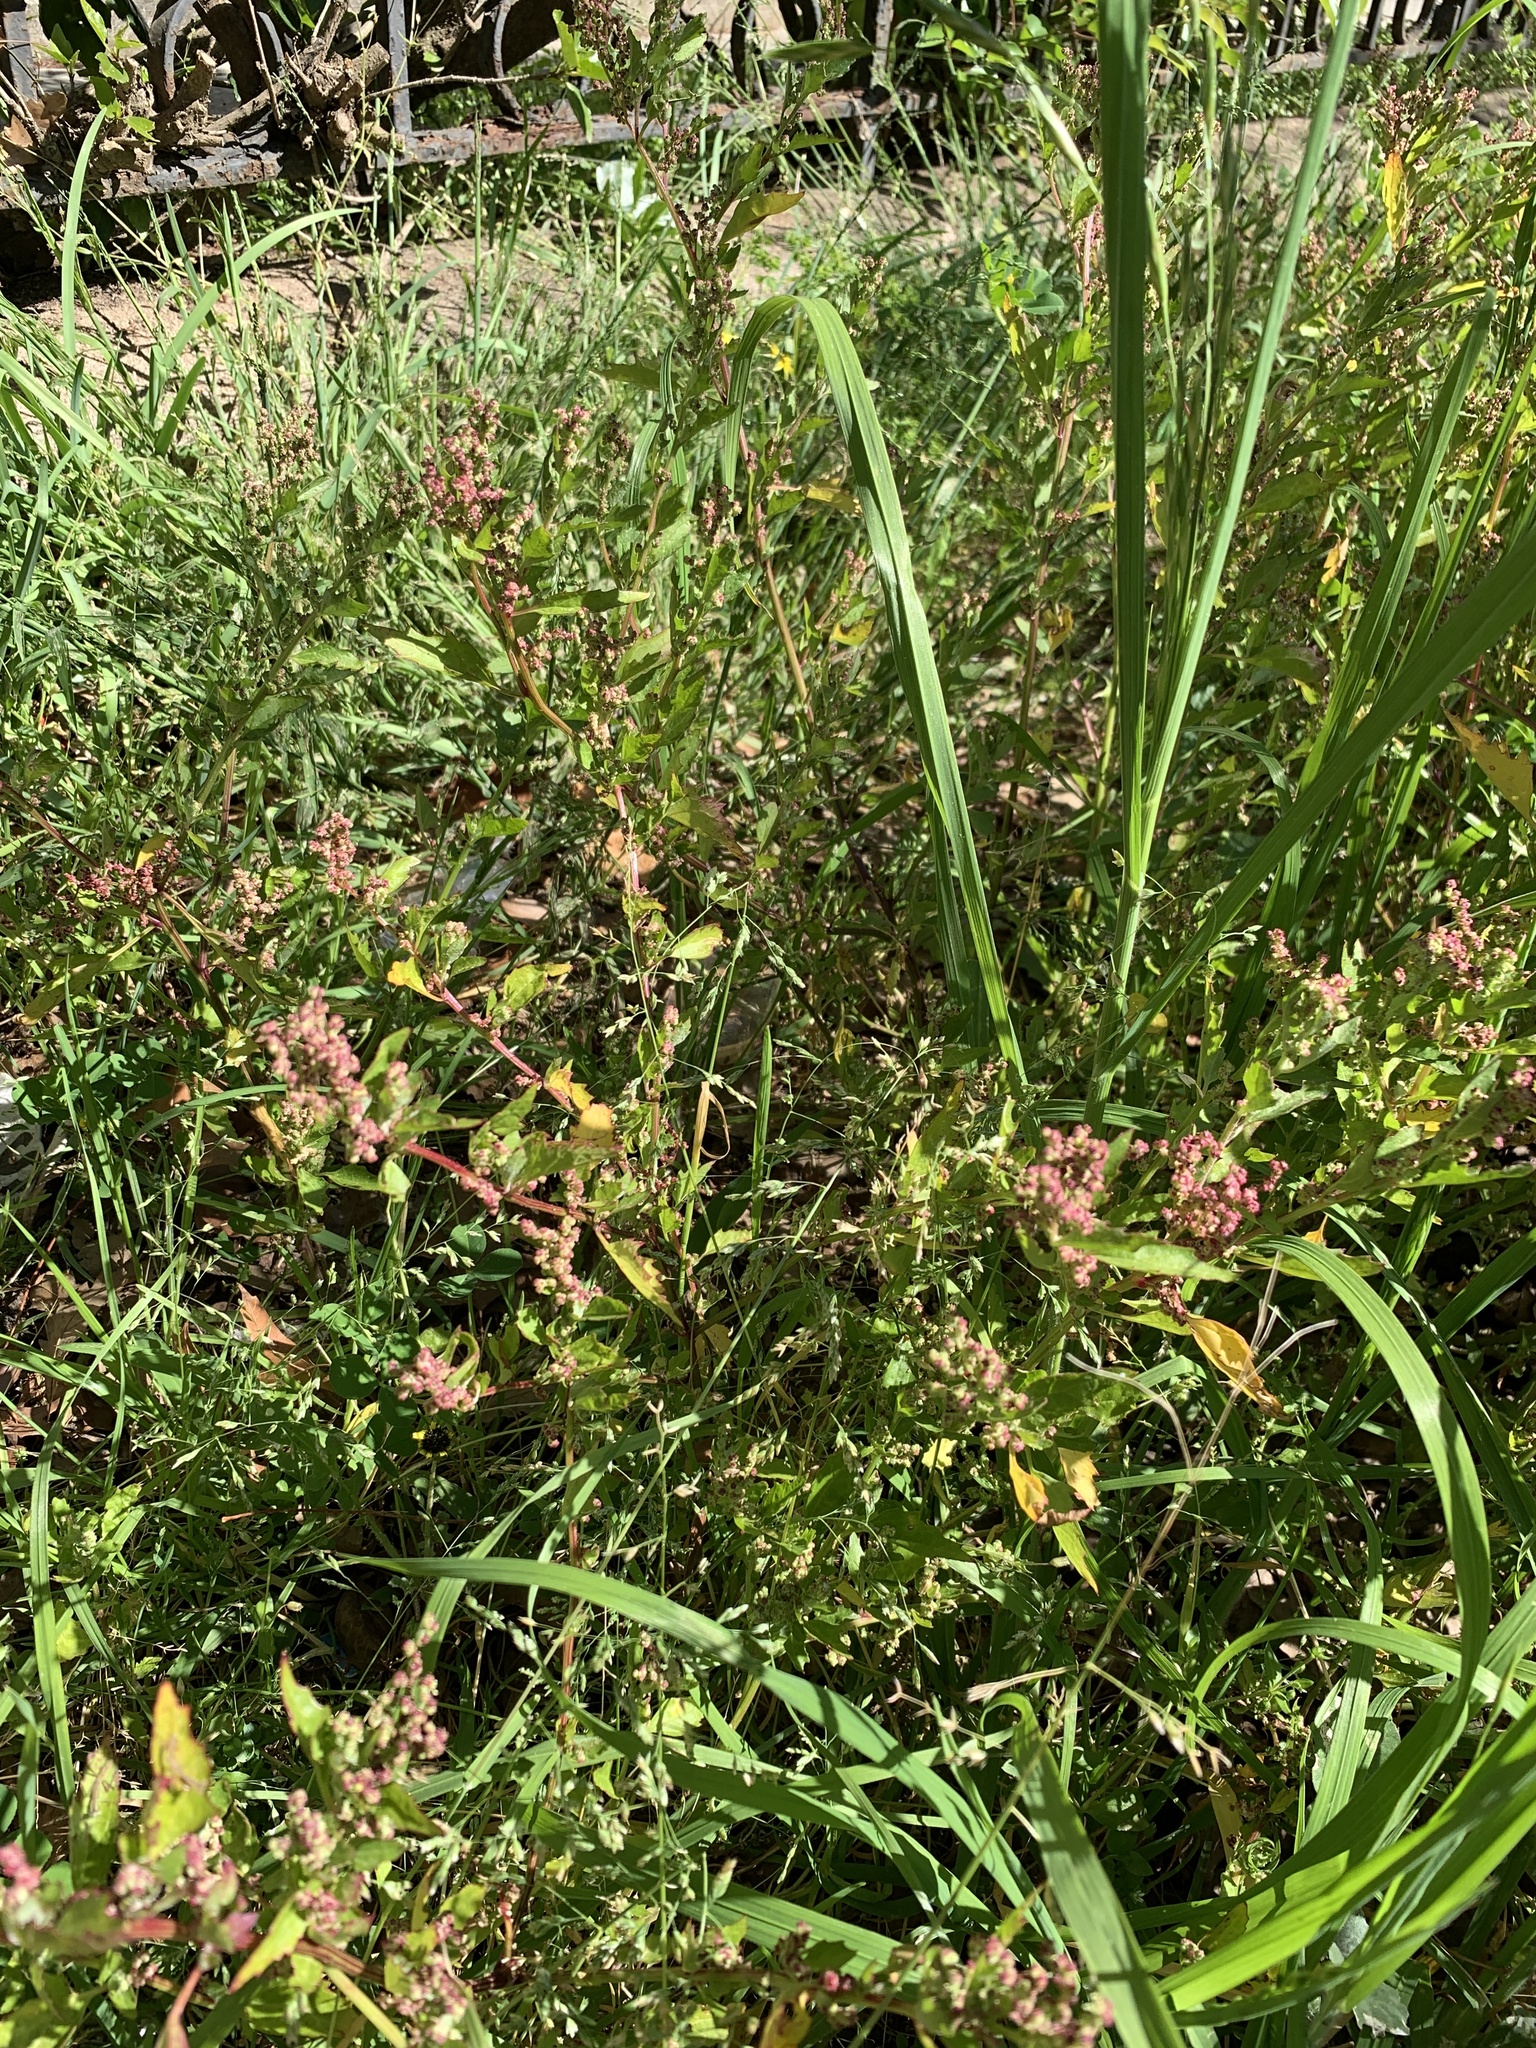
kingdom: Plantae
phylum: Tracheophyta
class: Magnoliopsida
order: Caryophyllales
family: Amaranthaceae
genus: Chenopodiastrum
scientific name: Chenopodiastrum murale
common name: Sowbane
